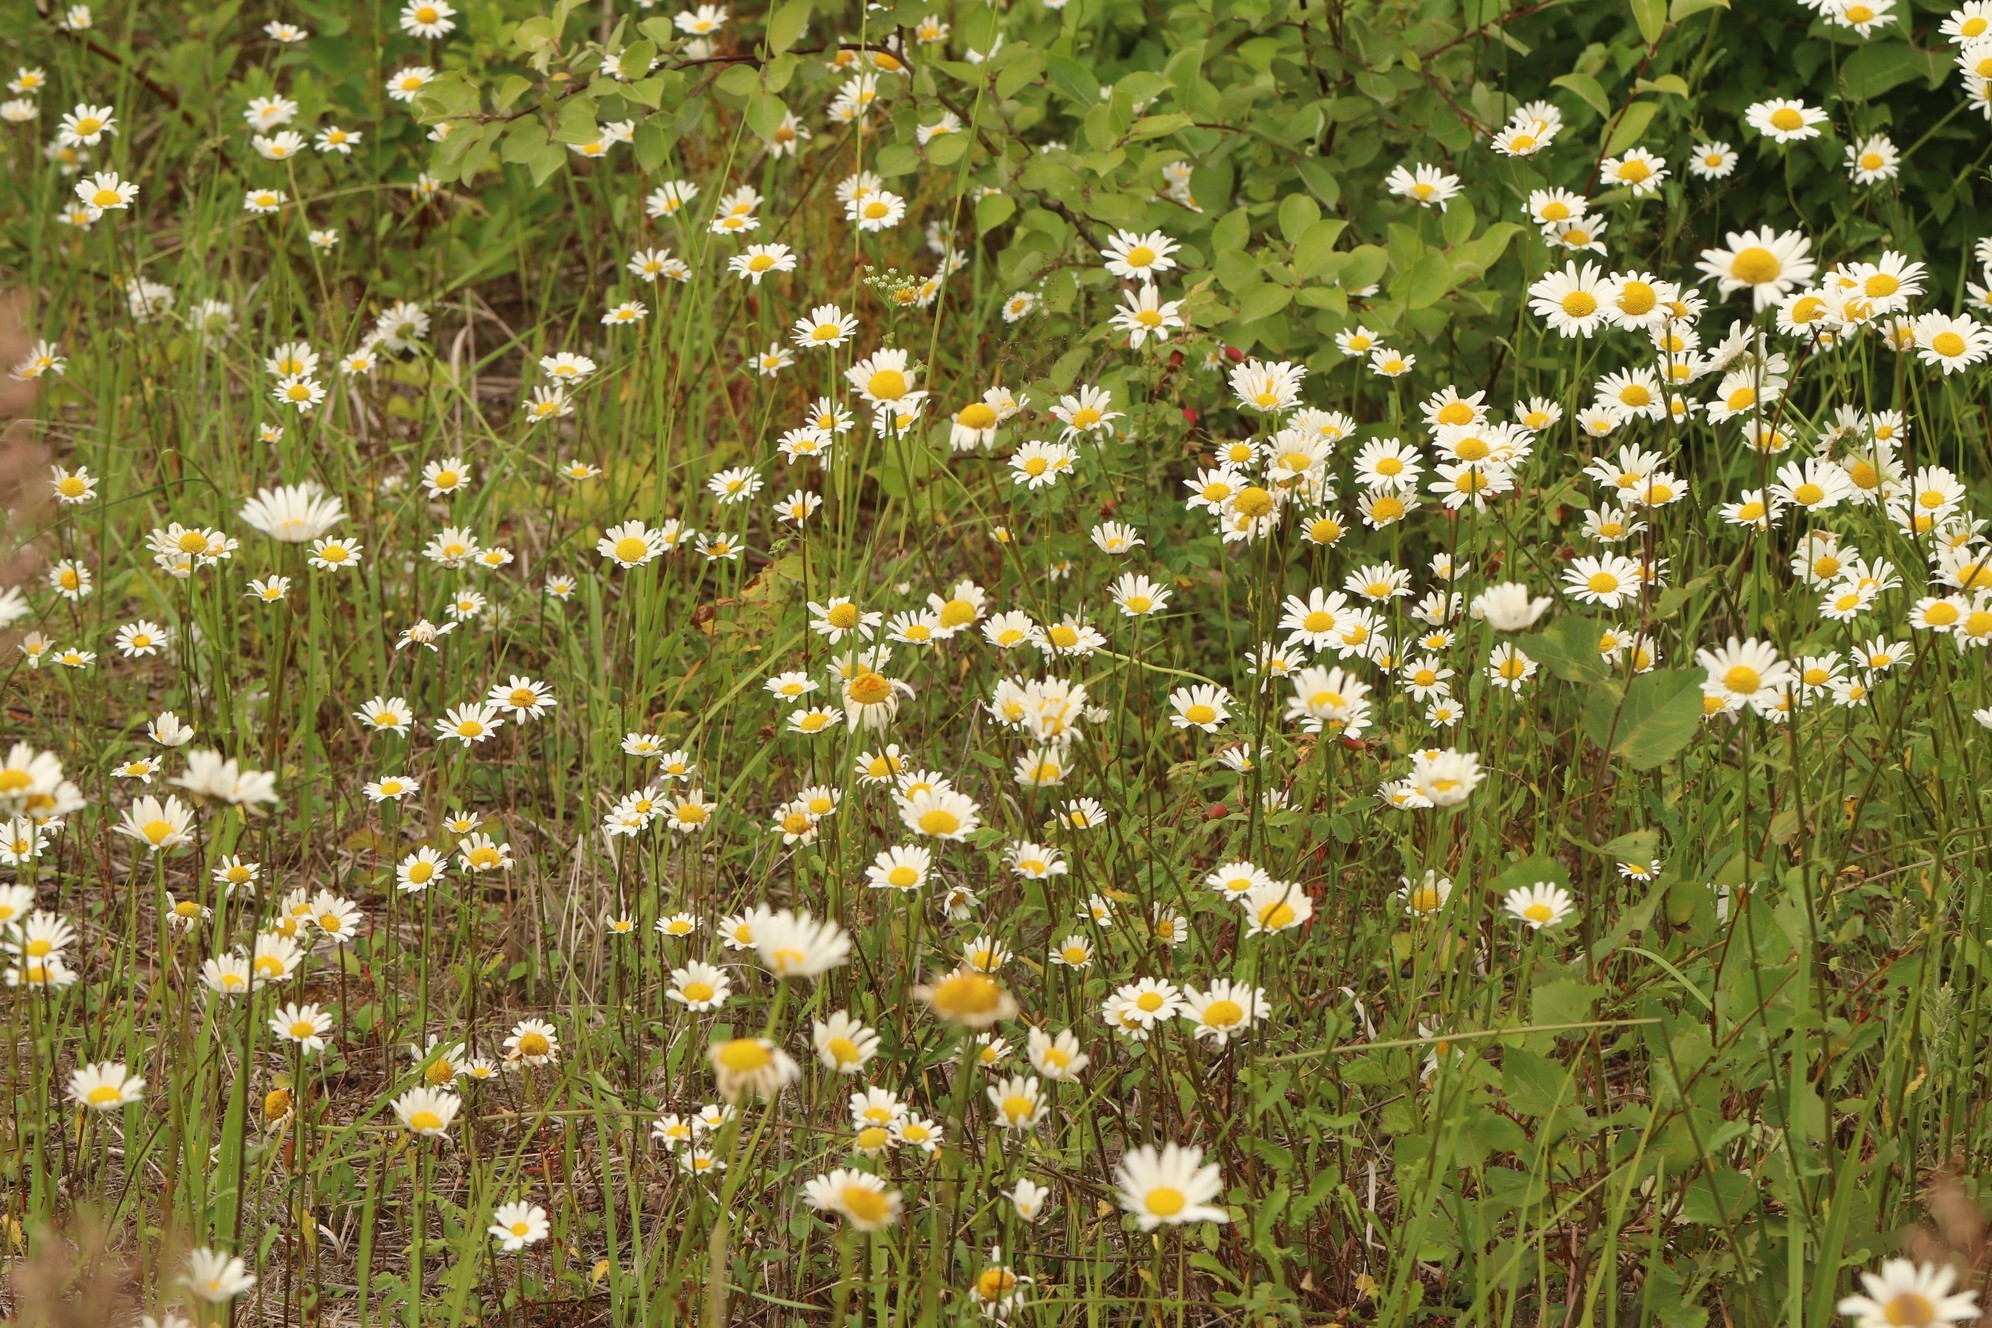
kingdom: Plantae
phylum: Tracheophyta
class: Magnoliopsida
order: Asterales
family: Asteraceae
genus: Leucanthemum
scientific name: Leucanthemum ircutianum
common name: Daisy
